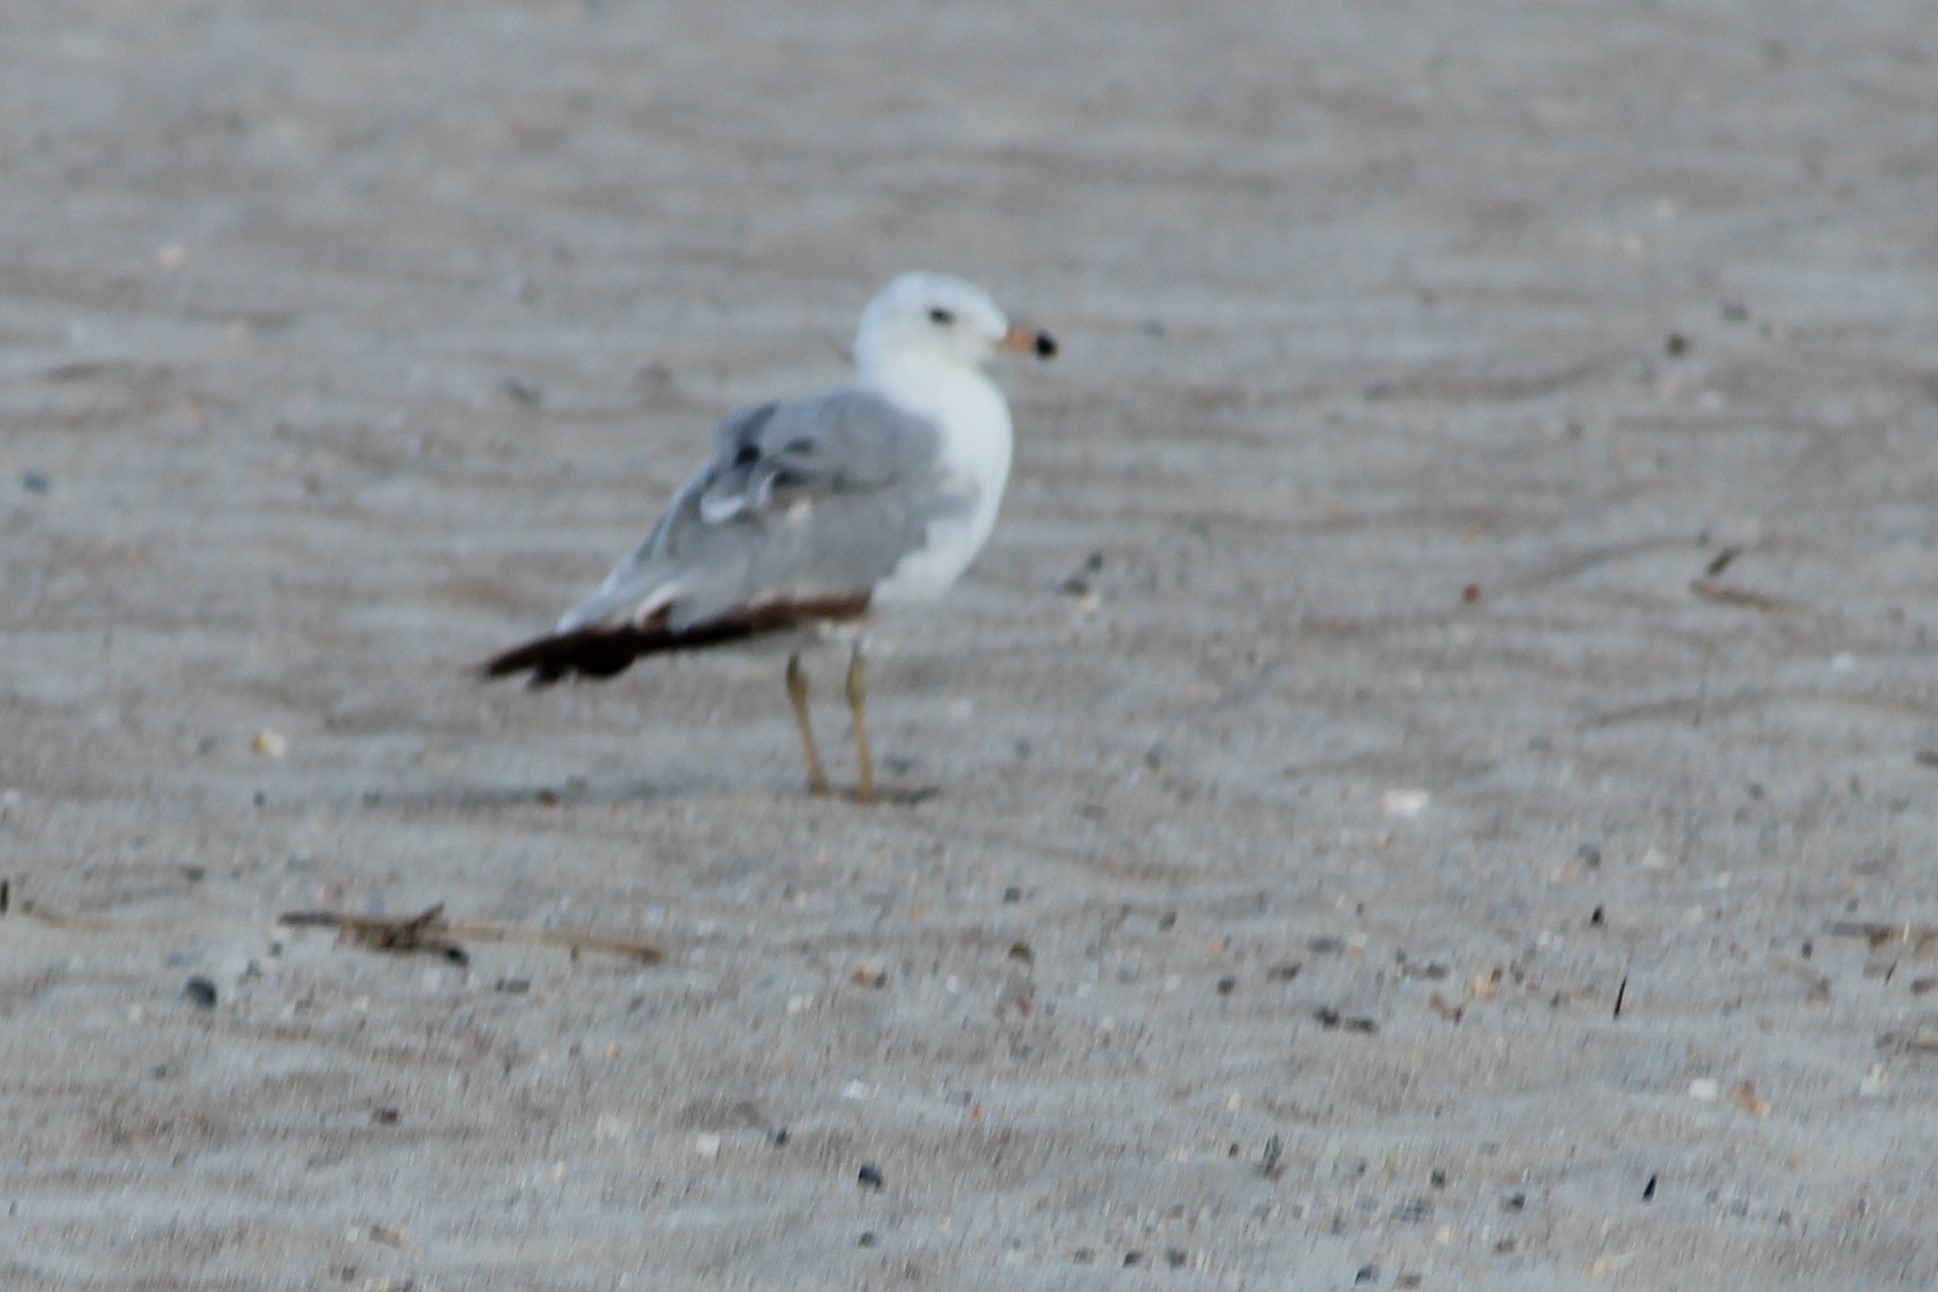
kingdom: Animalia
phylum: Chordata
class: Aves
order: Charadriiformes
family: Laridae
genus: Larus
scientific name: Larus delawarensis
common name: Ring-billed gull
